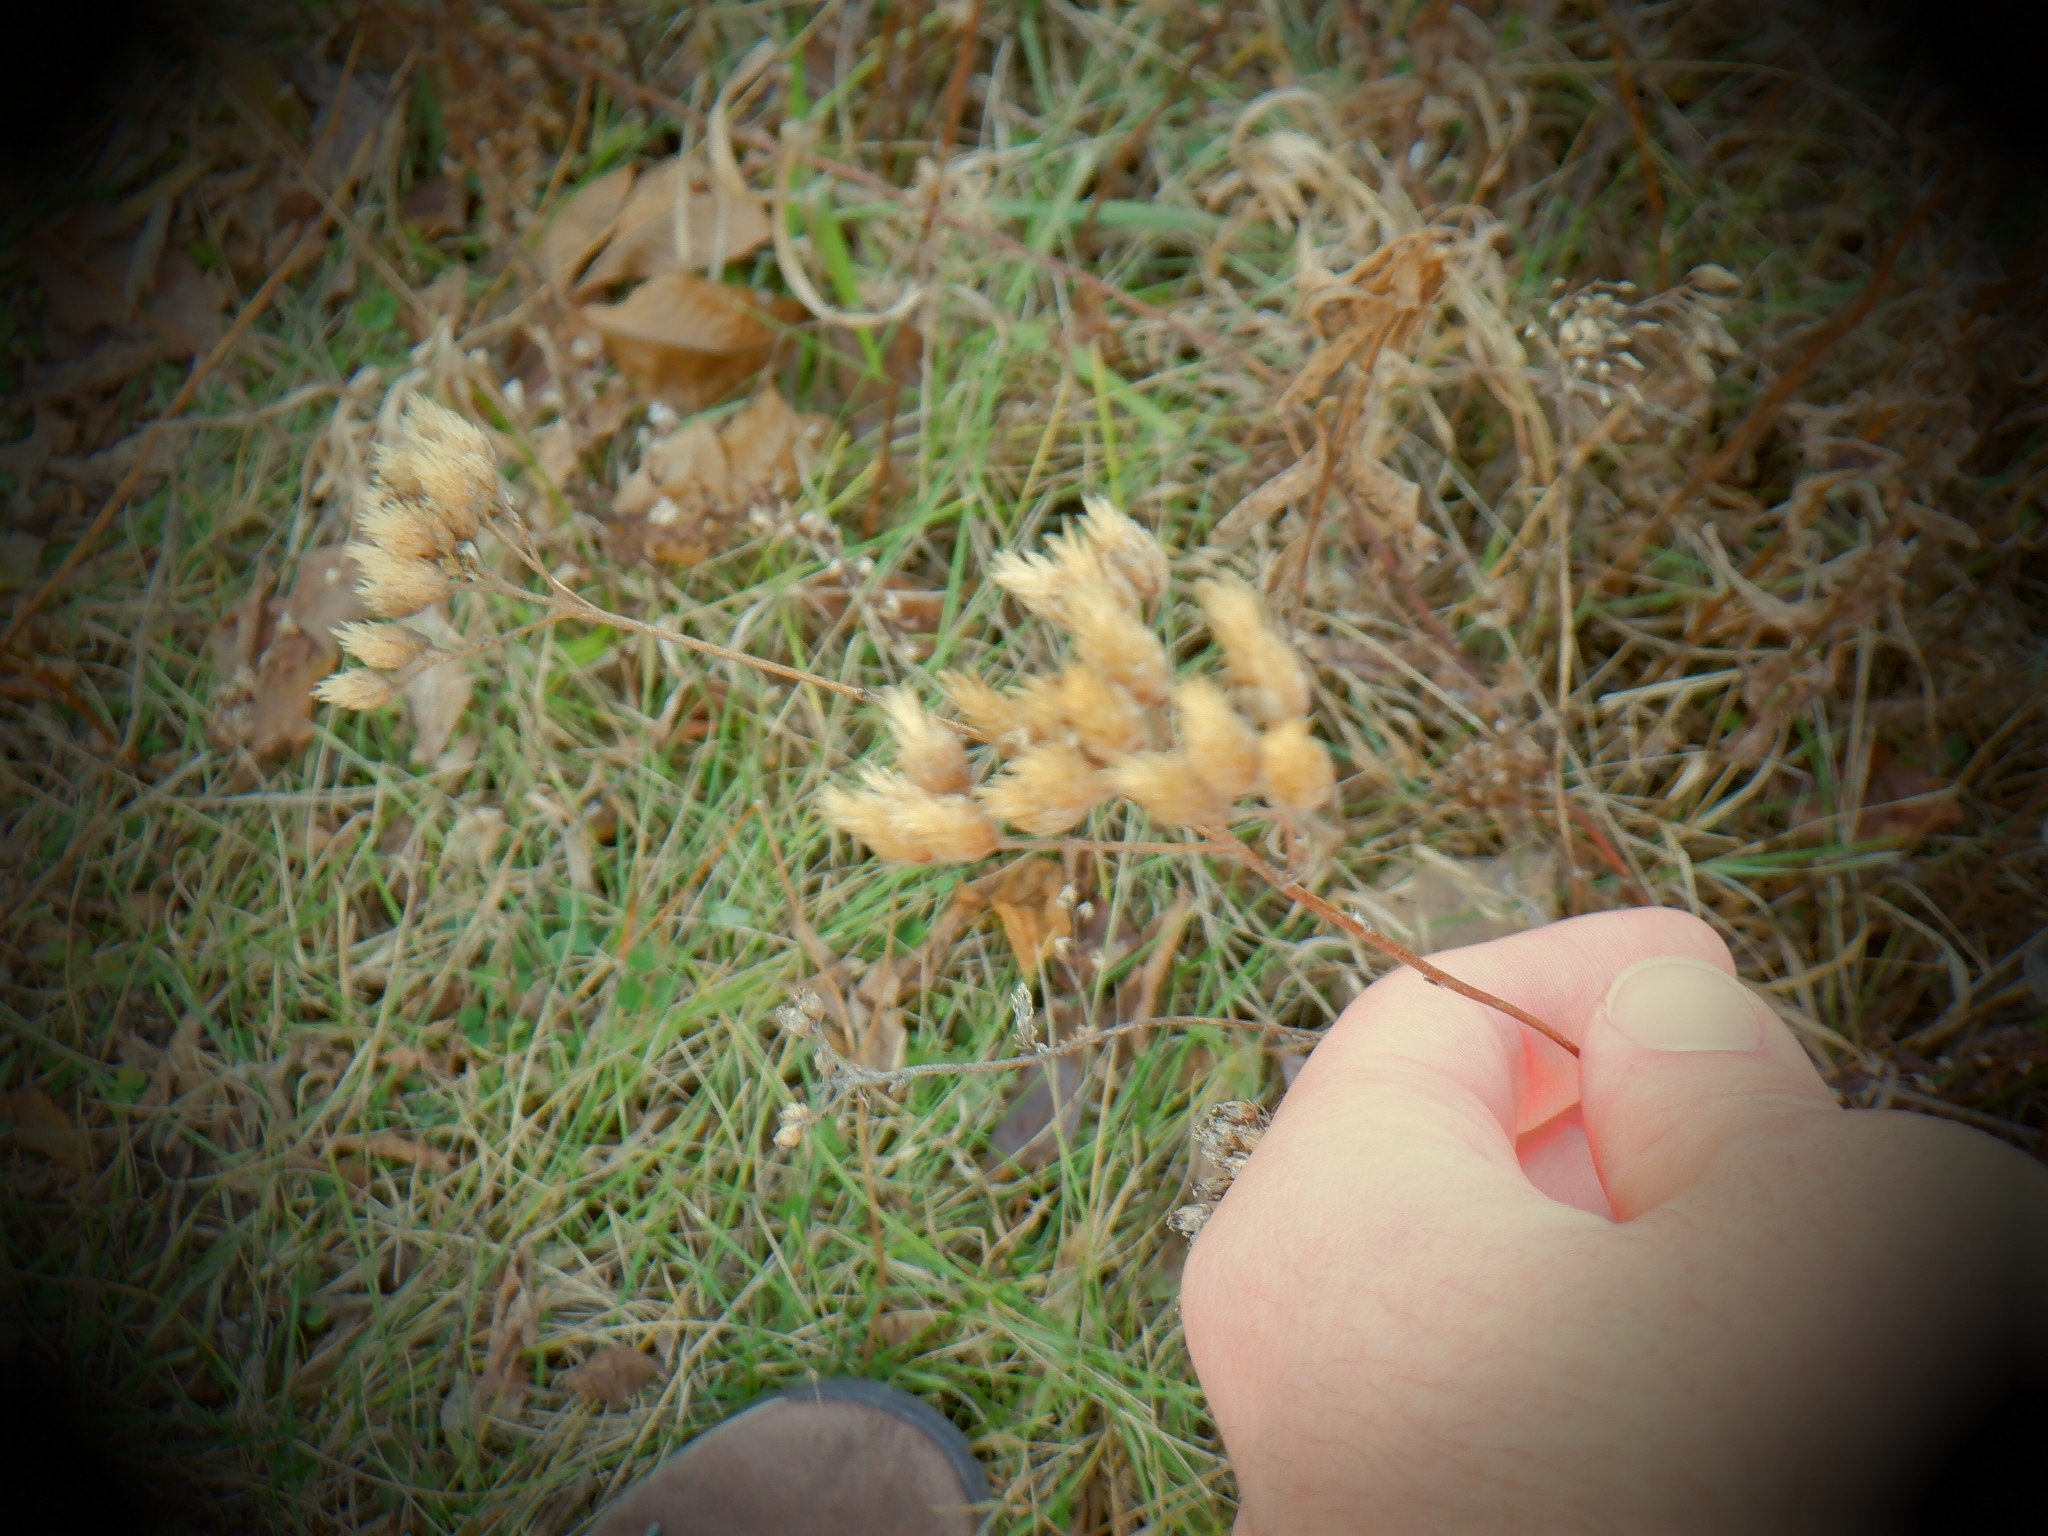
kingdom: Plantae
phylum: Tracheophyta
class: Magnoliopsida
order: Asterales
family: Asteraceae
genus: Achillea
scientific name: Achillea millefolium
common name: Yarrow
